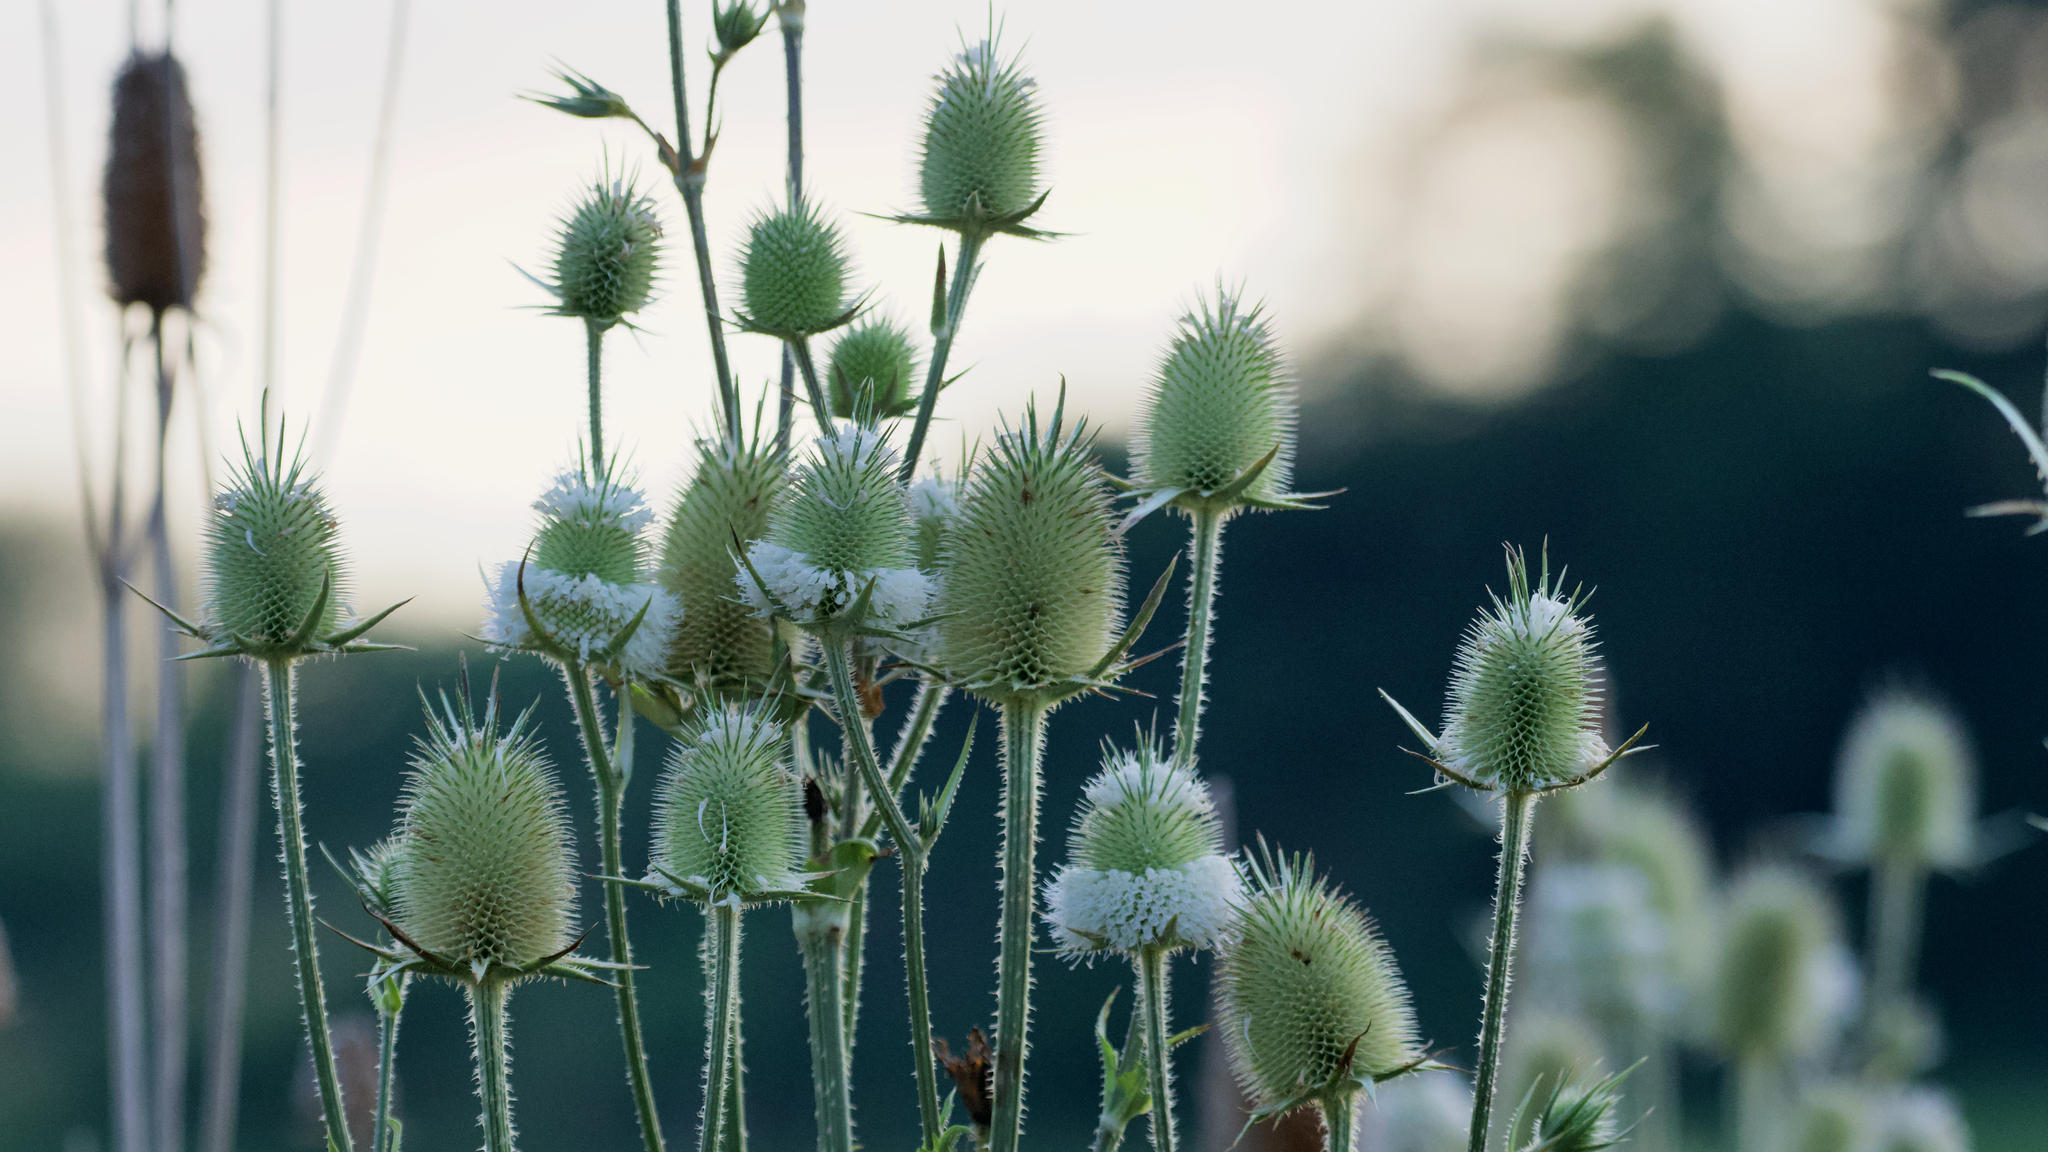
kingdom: Plantae
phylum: Tracheophyta
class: Magnoliopsida
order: Dipsacales
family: Caprifoliaceae
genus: Dipsacus
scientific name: Dipsacus laciniatus
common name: Cut-leaved teasel
